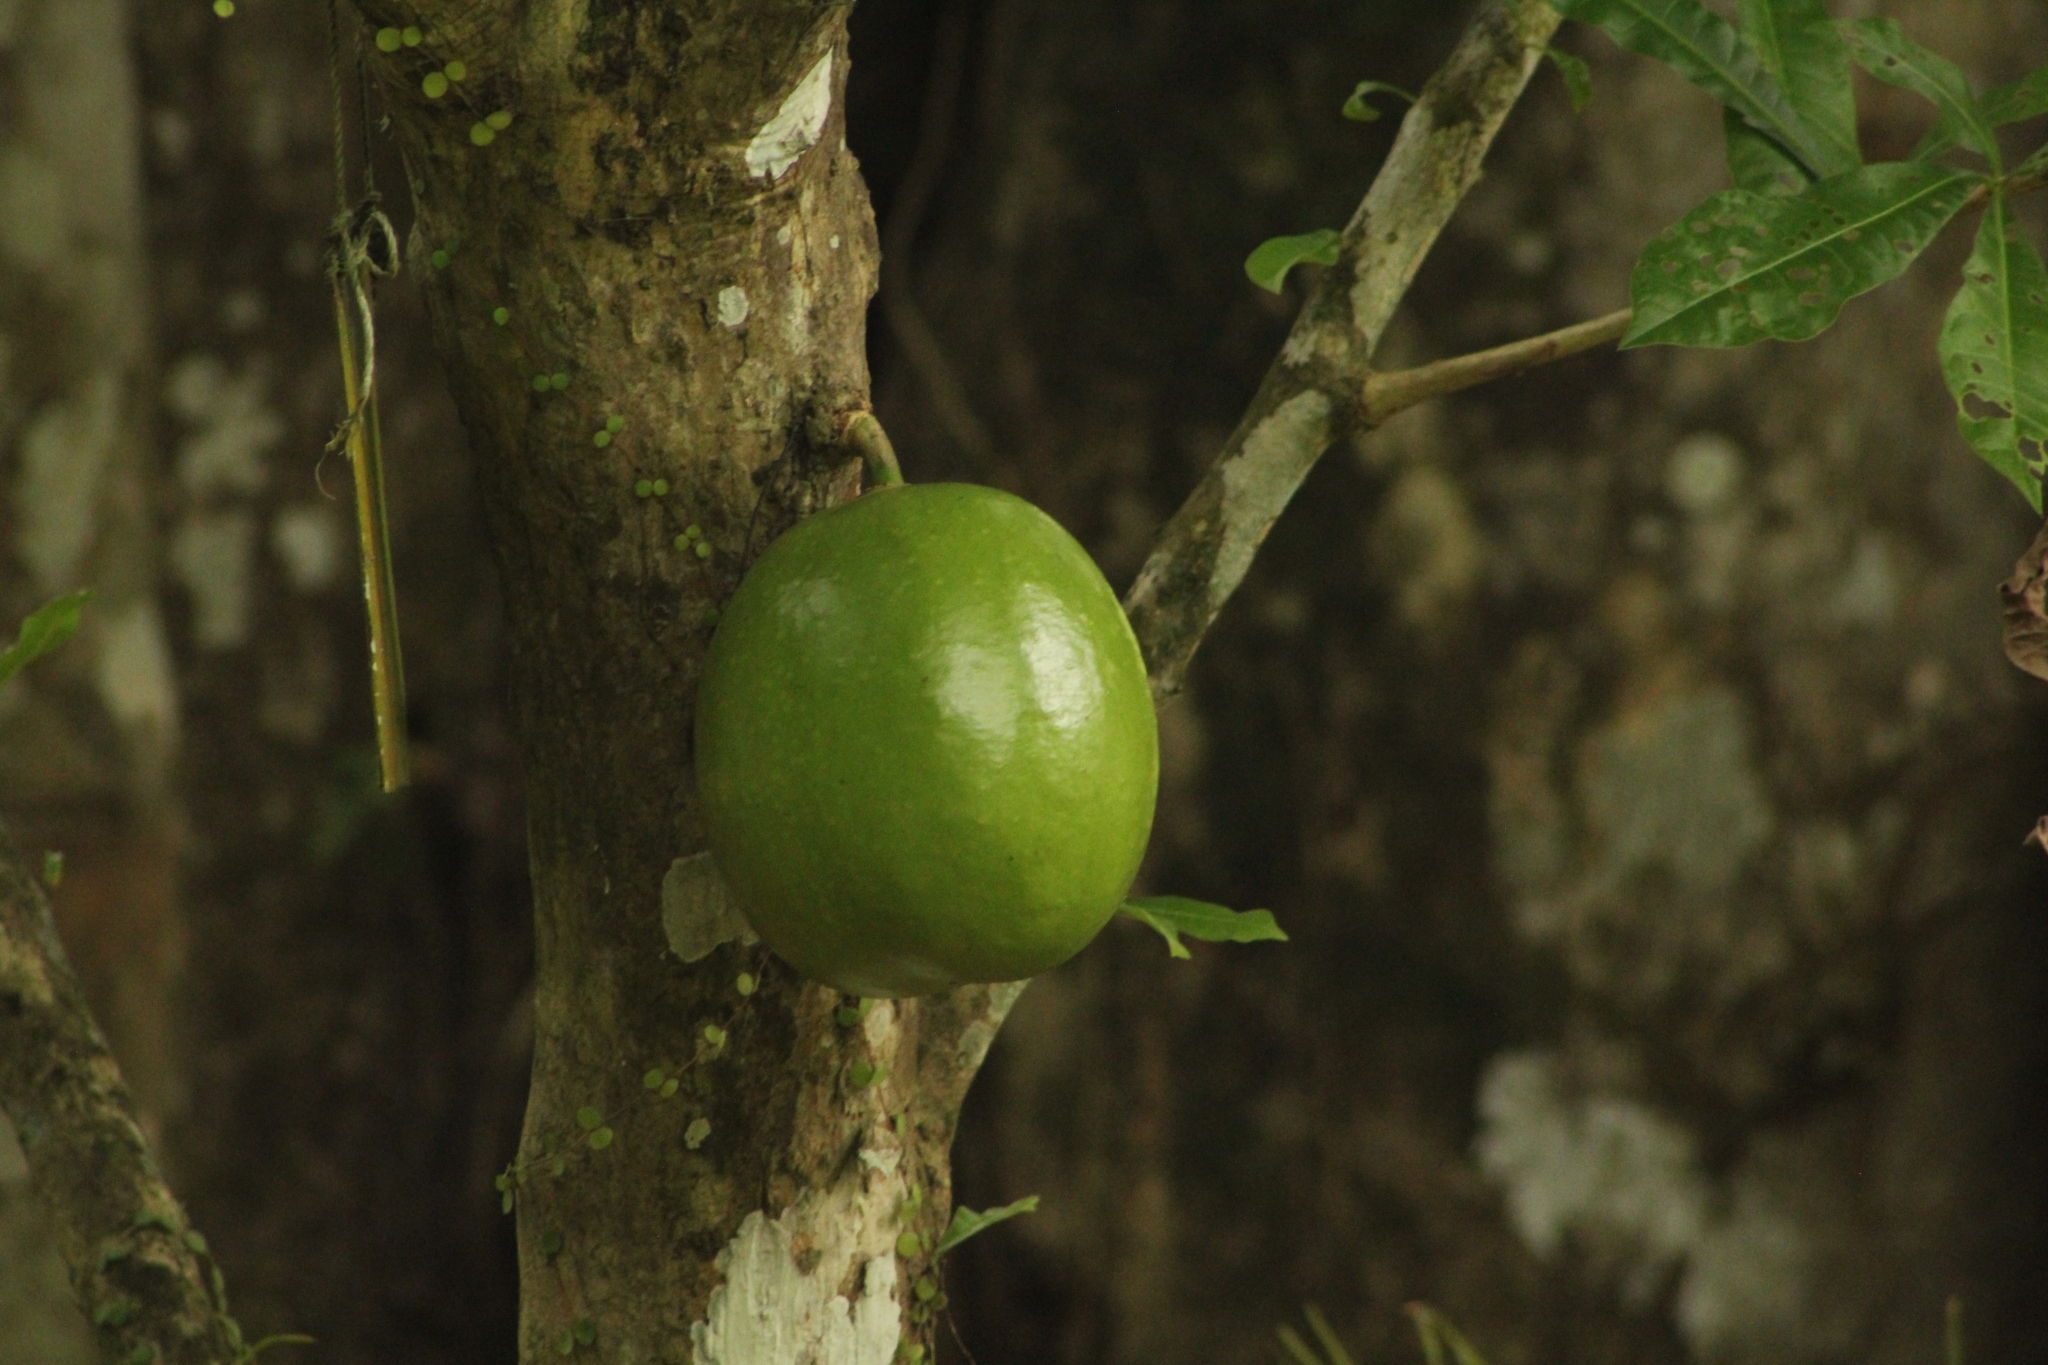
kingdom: Plantae
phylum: Tracheophyta
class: Magnoliopsida
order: Lamiales
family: Bignoniaceae
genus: Crescentia
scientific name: Crescentia cujete
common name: Calabash
